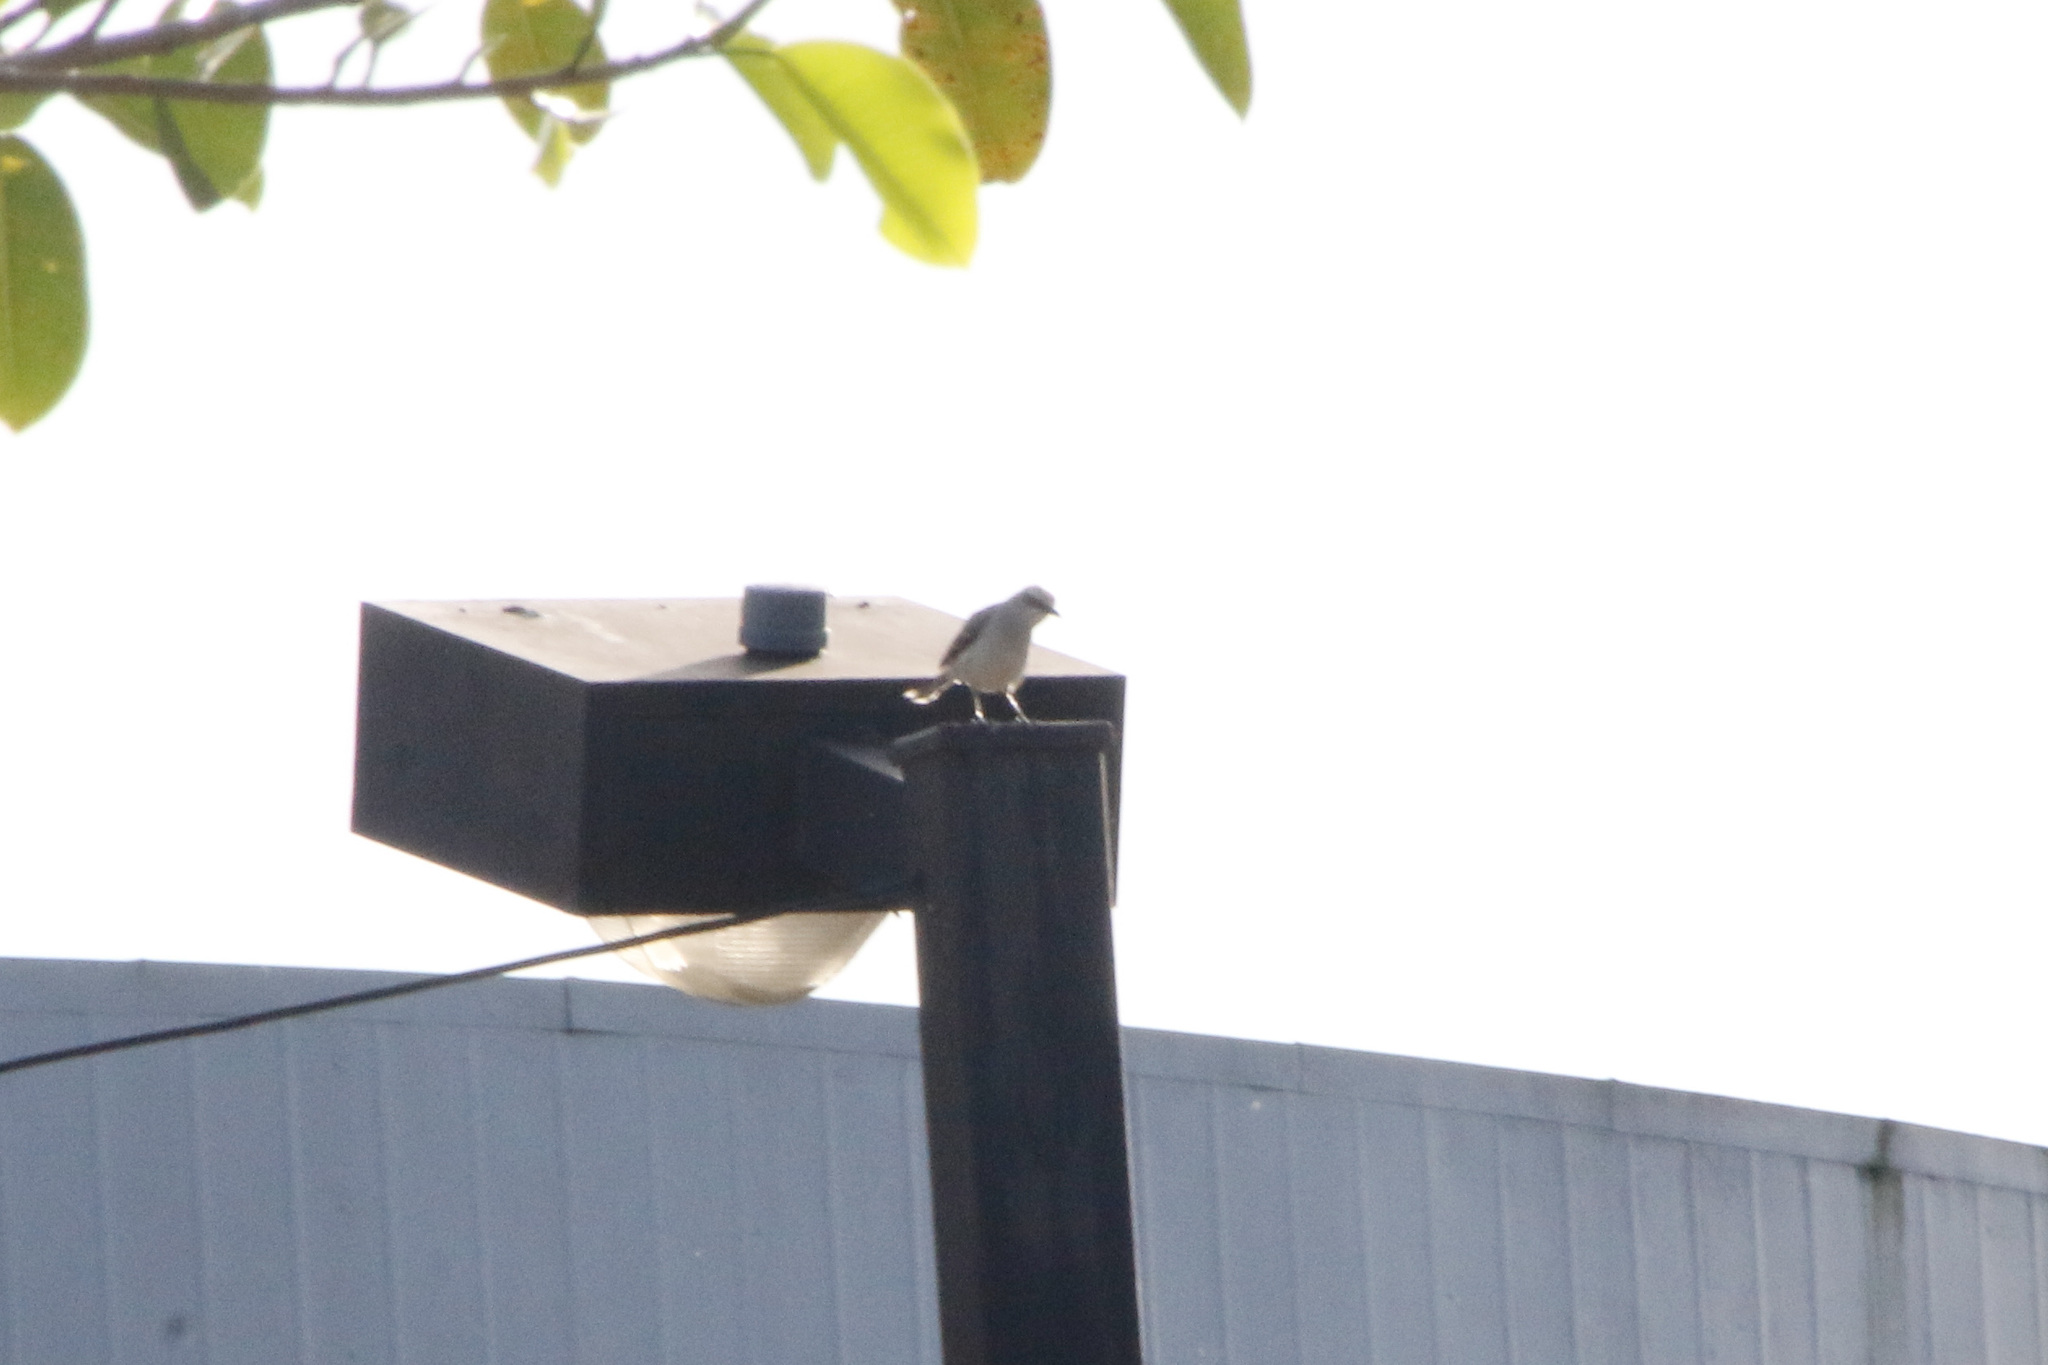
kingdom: Animalia
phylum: Chordata
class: Aves
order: Passeriformes
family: Mimidae
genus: Mimus
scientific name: Mimus gilvus
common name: Tropical mockingbird
